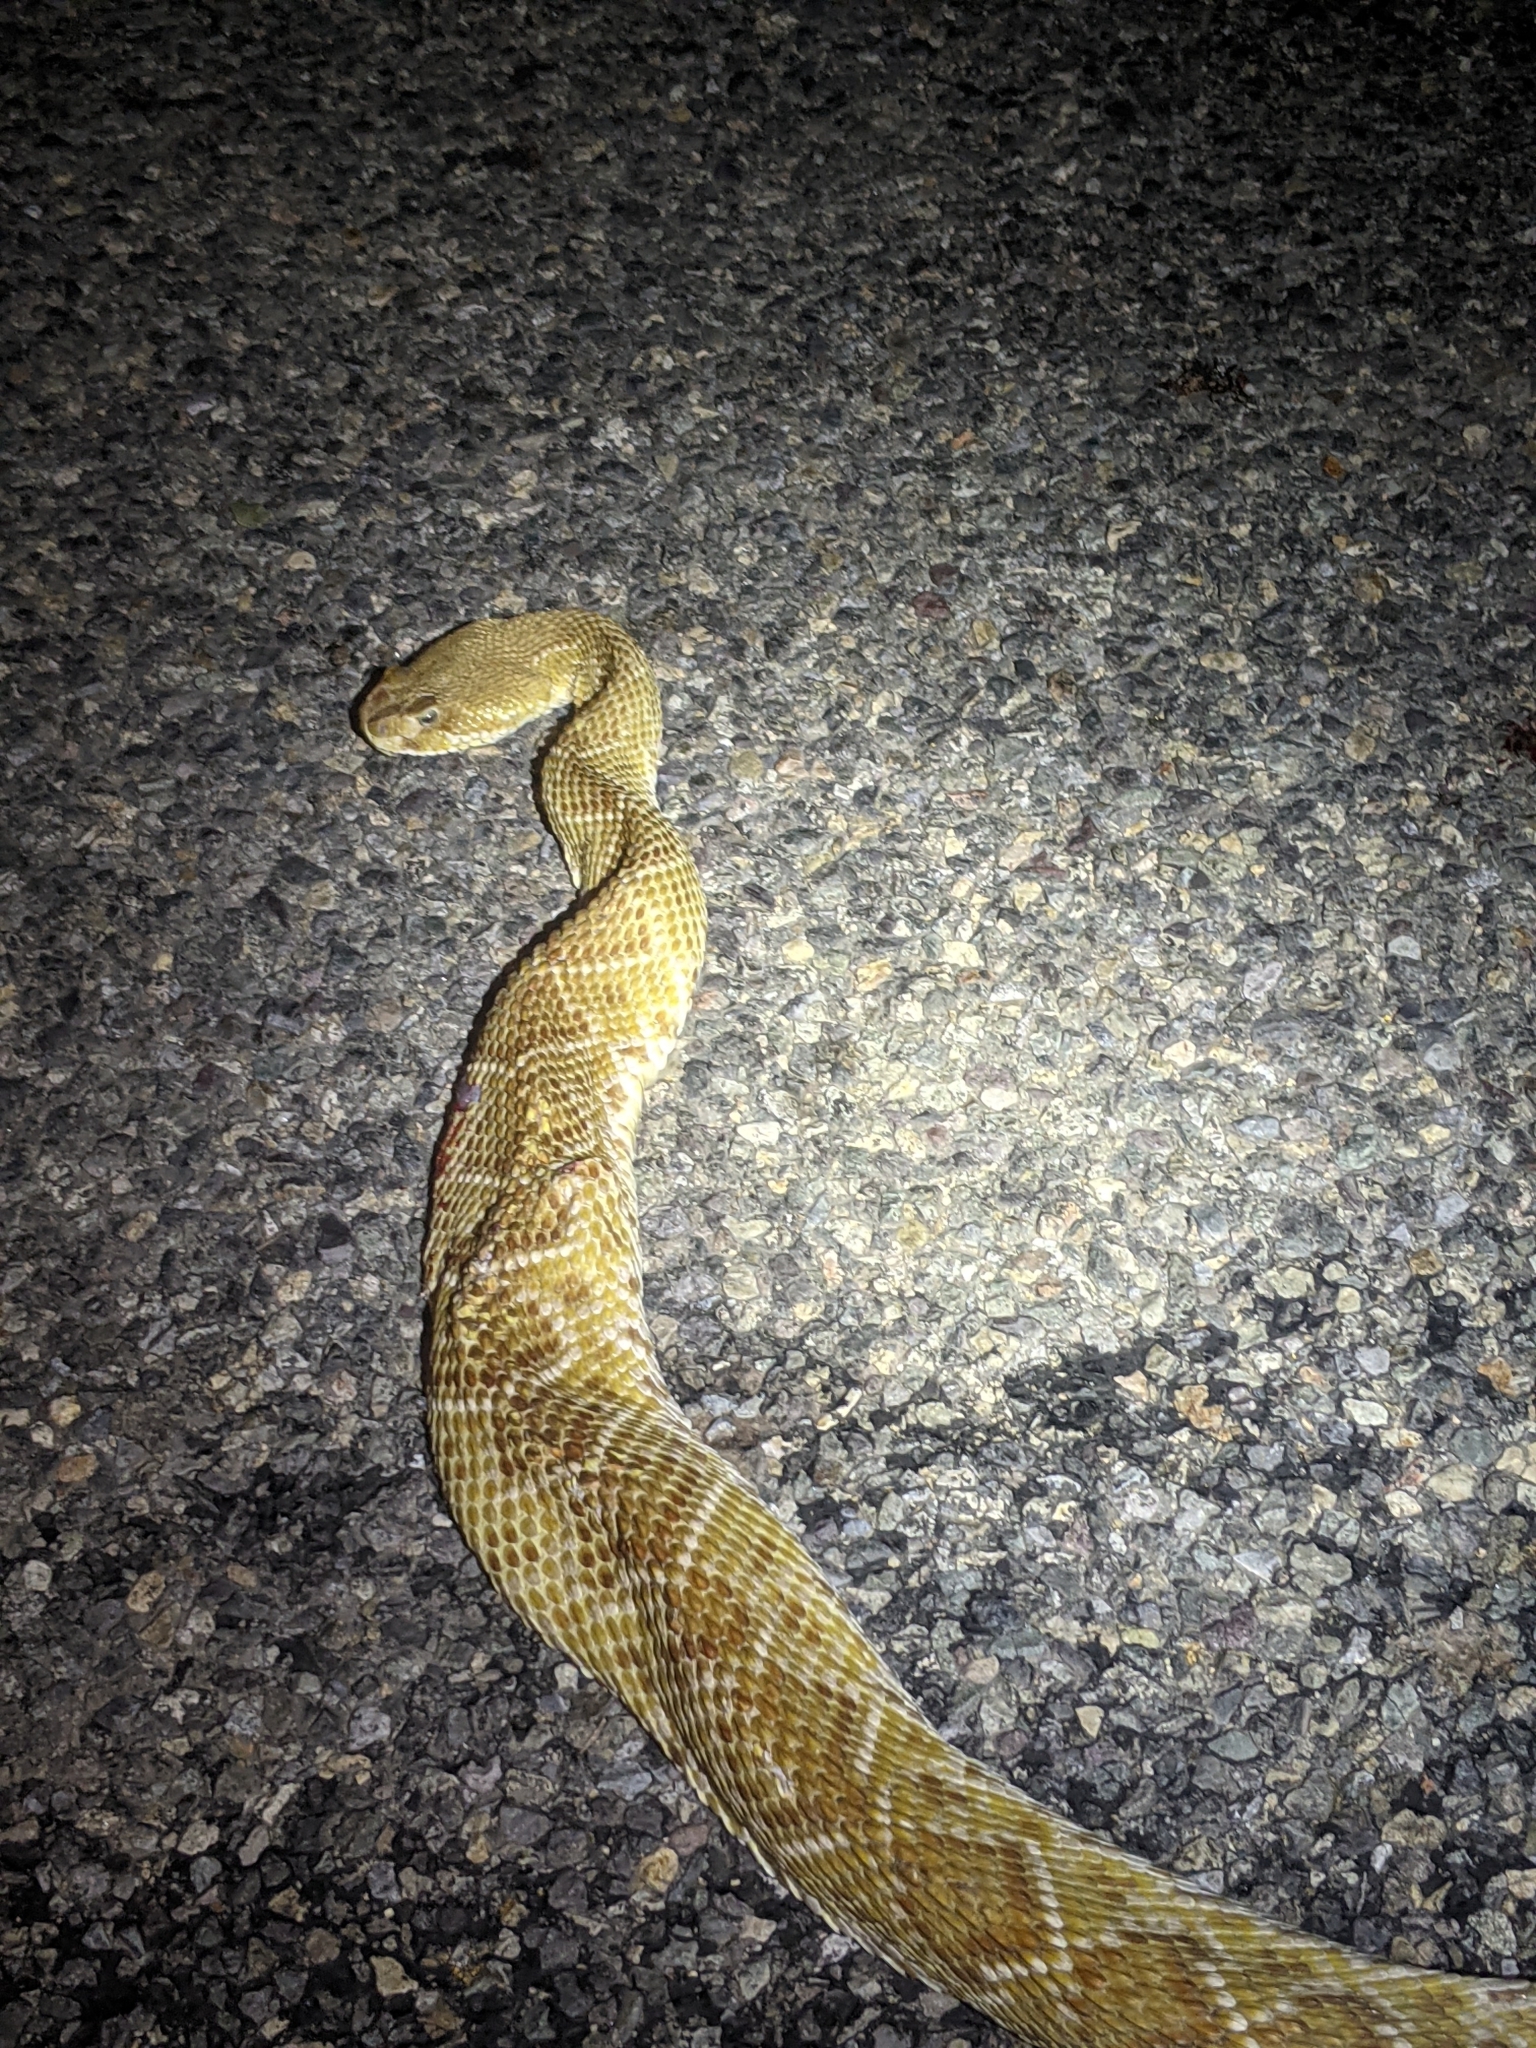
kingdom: Animalia
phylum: Chordata
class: Squamata
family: Viperidae
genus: Crotalus
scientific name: Crotalus basiliscus
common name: Basilisk rattlesnake
